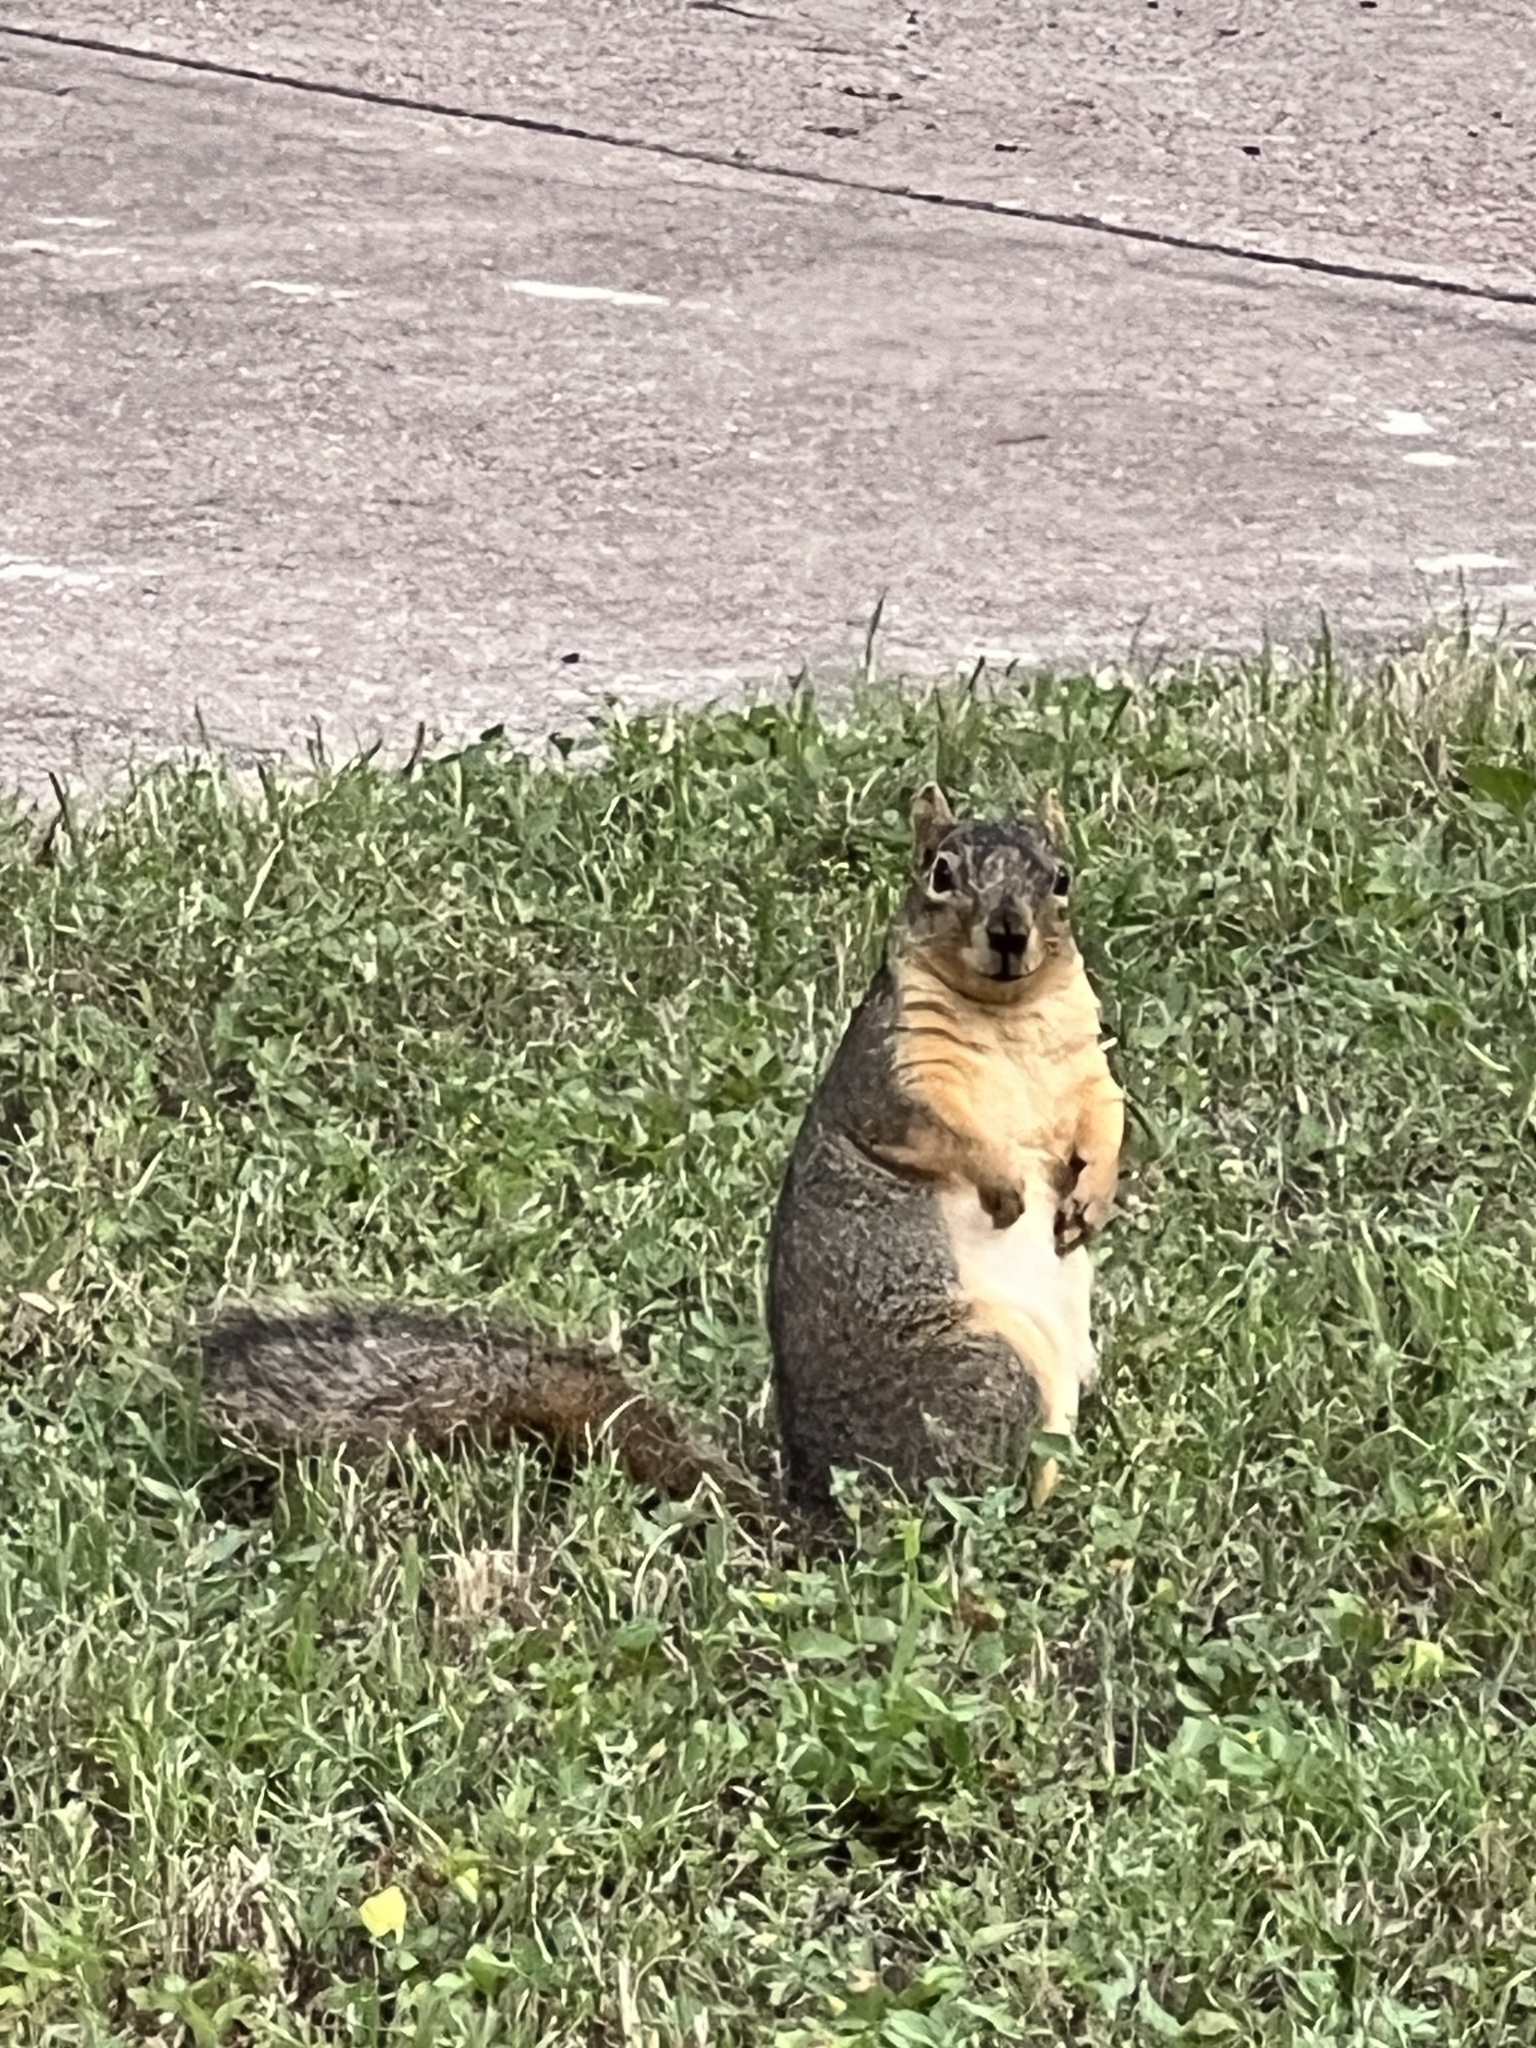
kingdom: Animalia
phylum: Chordata
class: Mammalia
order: Rodentia
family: Sciuridae
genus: Sciurus
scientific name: Sciurus niger
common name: Fox squirrel
